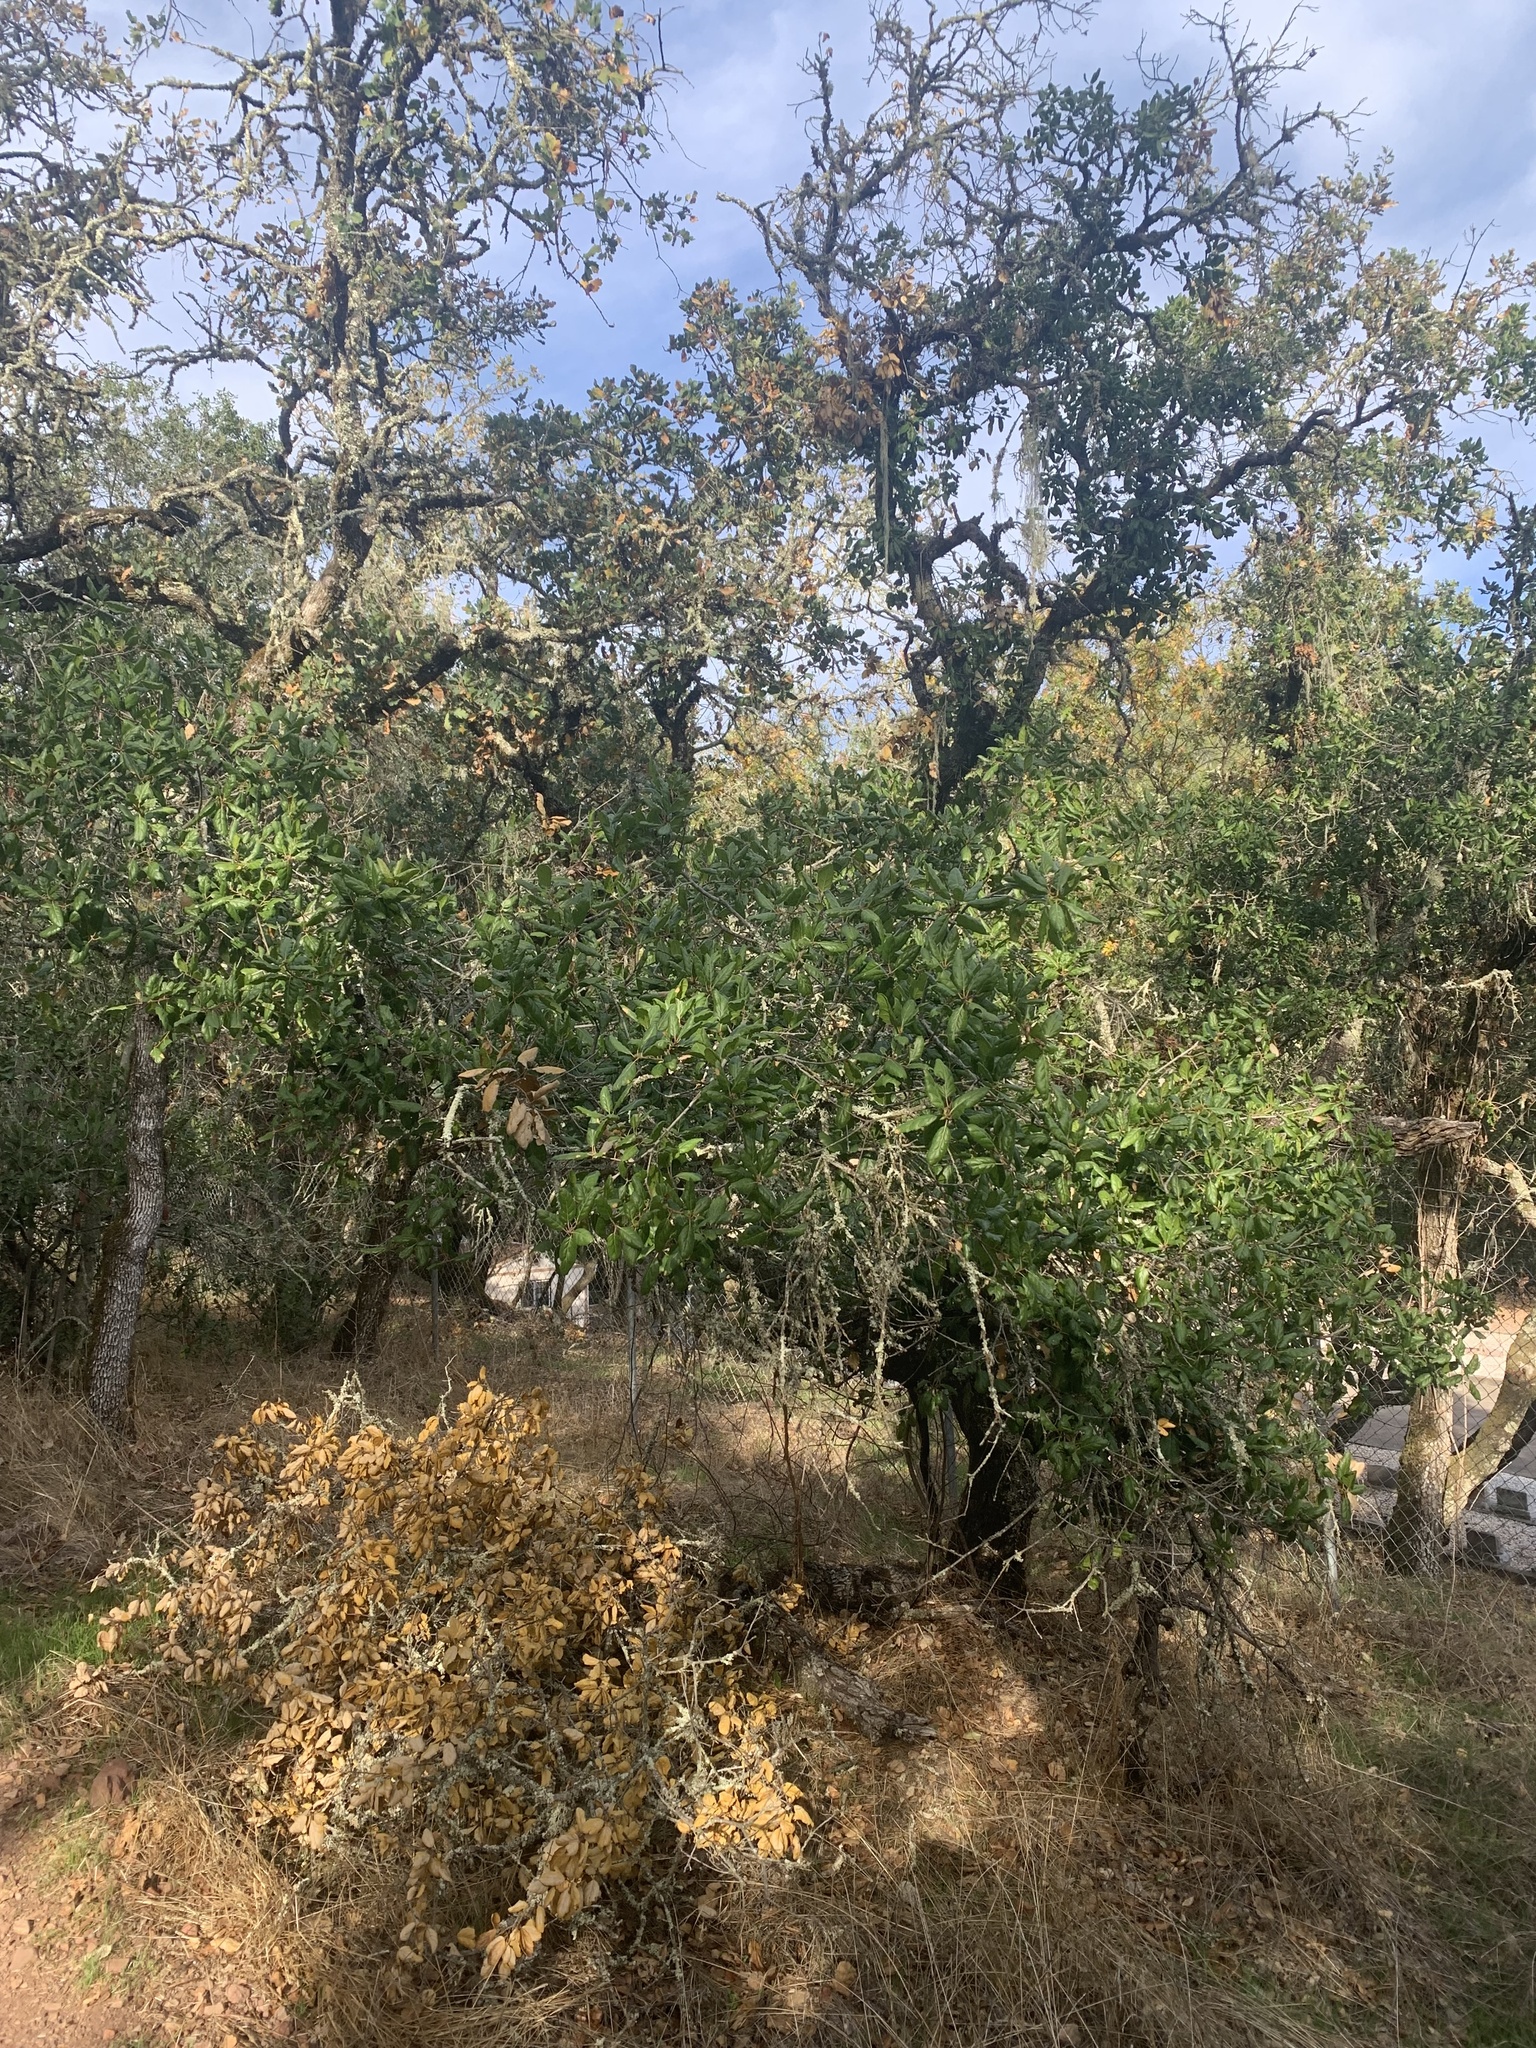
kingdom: Plantae
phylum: Tracheophyta
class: Magnoliopsida
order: Fagales
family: Fagaceae
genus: Quercus
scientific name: Quercus agrifolia
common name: California live oak
